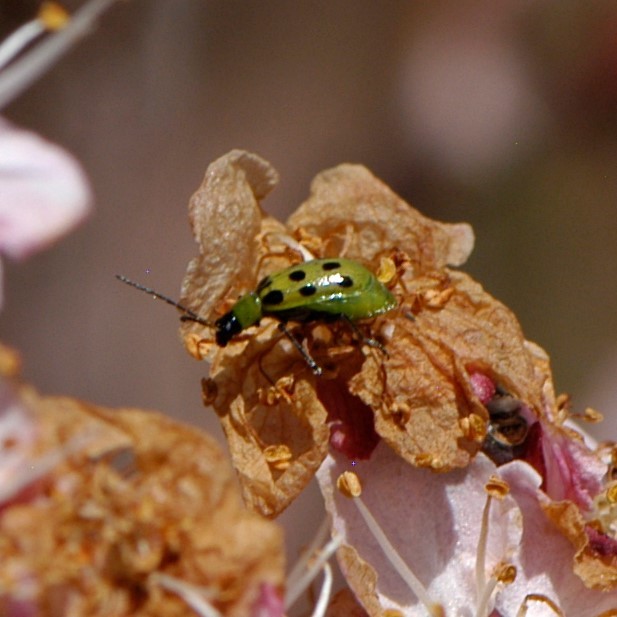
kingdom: Animalia
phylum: Arthropoda
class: Insecta
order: Coleoptera
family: Chrysomelidae
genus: Diabrotica
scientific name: Diabrotica undecimpunctata
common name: Spotted cucumber beetle
